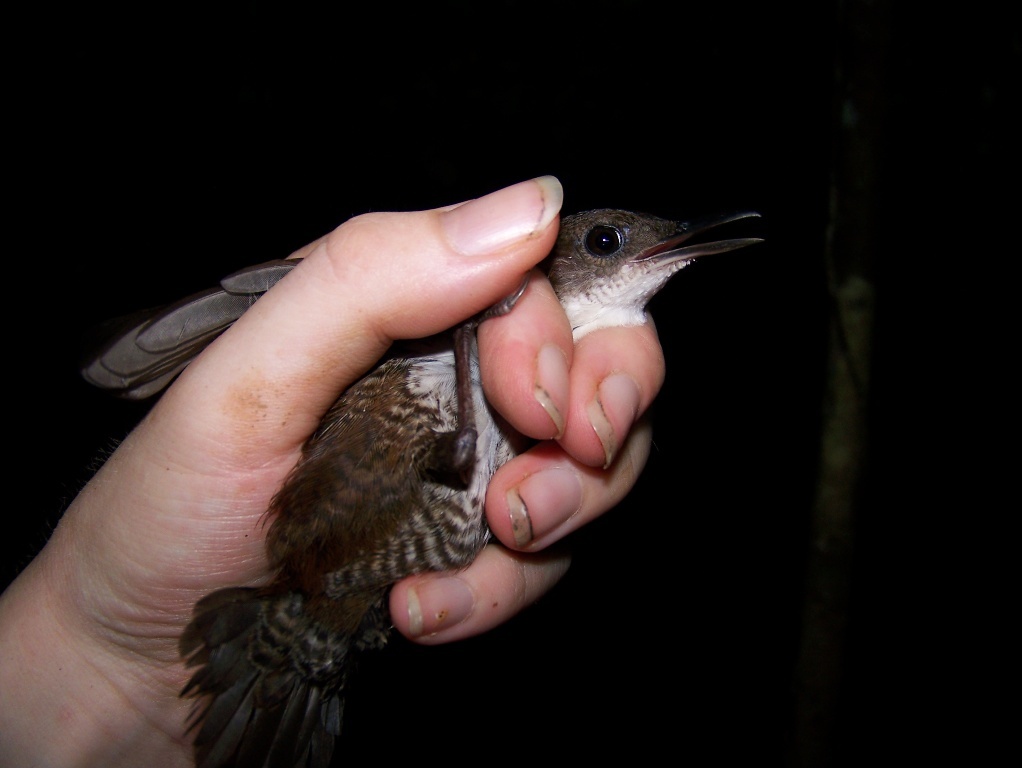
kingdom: Animalia
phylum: Chordata
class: Aves
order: Passeriformes
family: Troglodytidae
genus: Microcerculus
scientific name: Microcerculus marginatus
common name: Southern nightingale-wren
